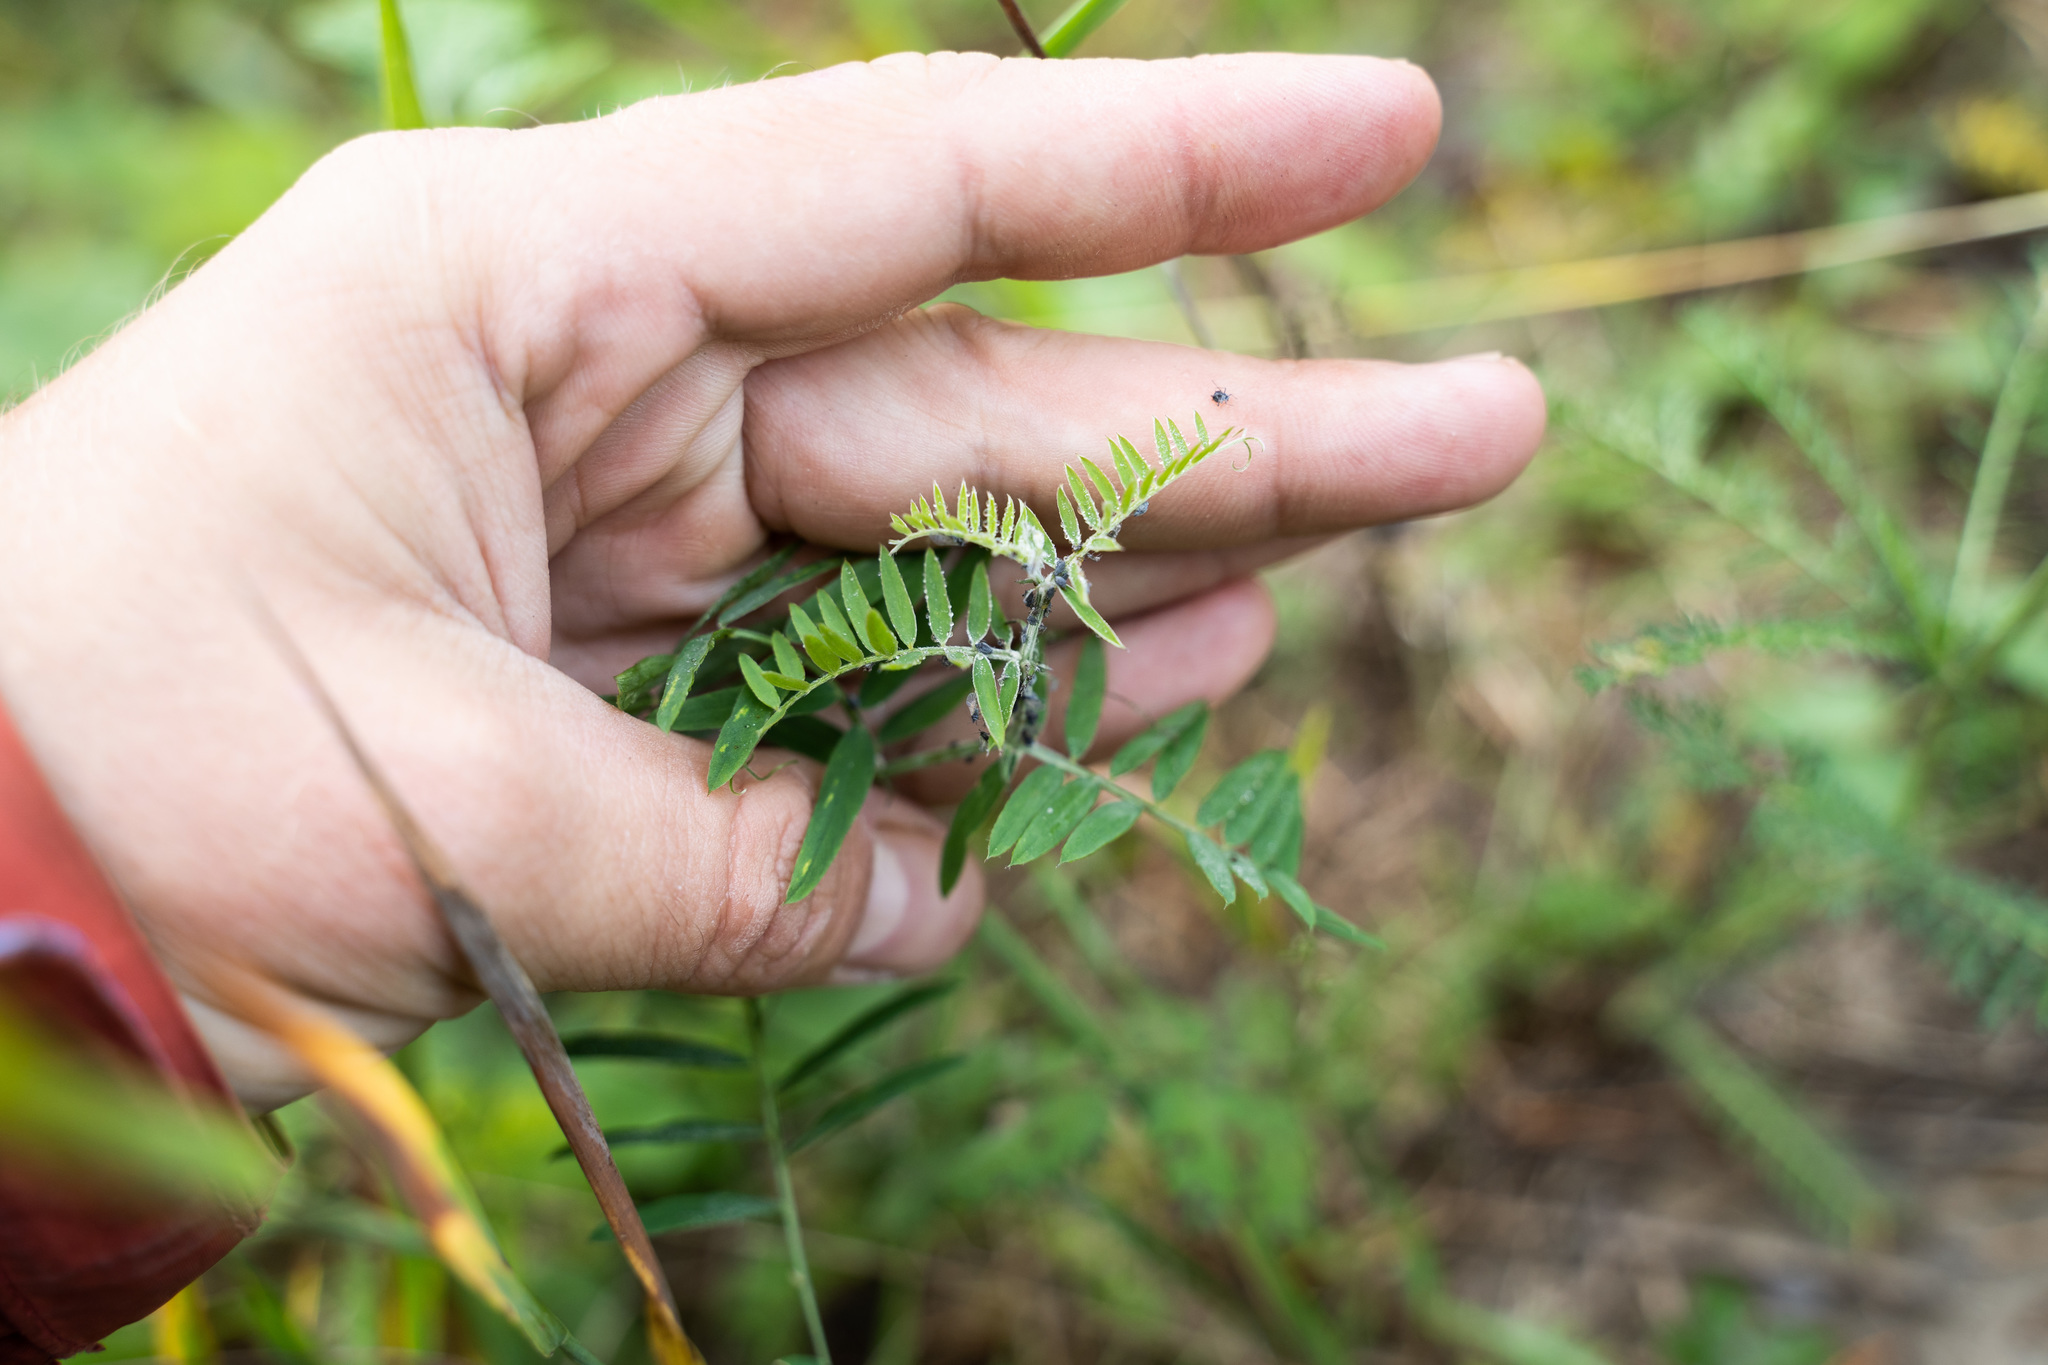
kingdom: Plantae
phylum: Tracheophyta
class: Magnoliopsida
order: Fabales
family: Fabaceae
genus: Vicia
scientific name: Vicia cracca
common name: Bird vetch
